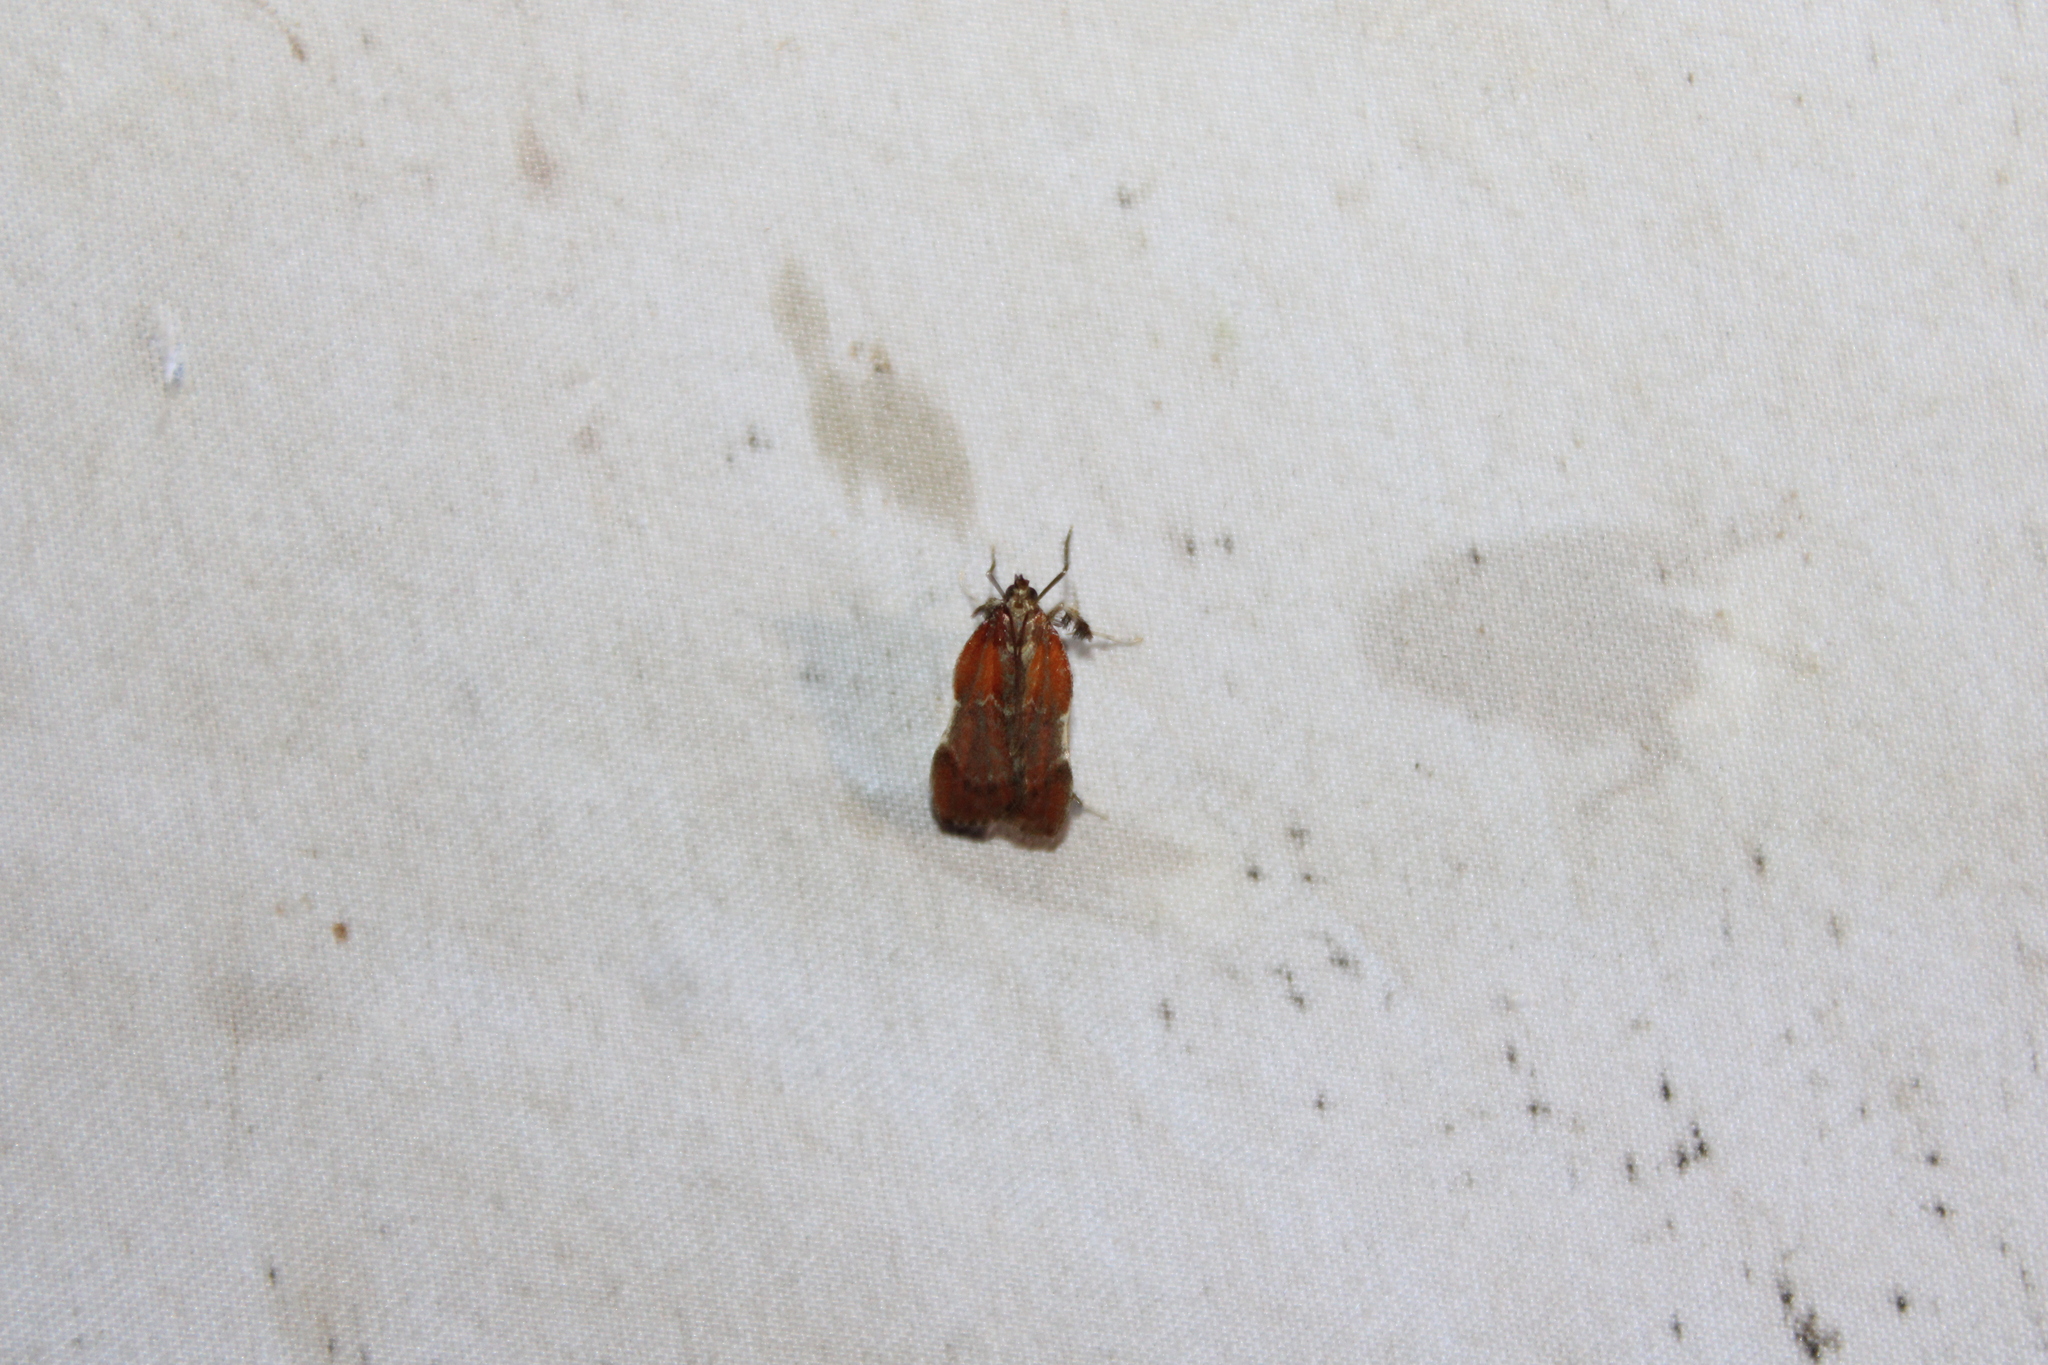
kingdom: Animalia
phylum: Arthropoda
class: Insecta
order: Lepidoptera
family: Pyralidae
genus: Galasa
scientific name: Galasa nigrinodis
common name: Boxwood leaftier moth
